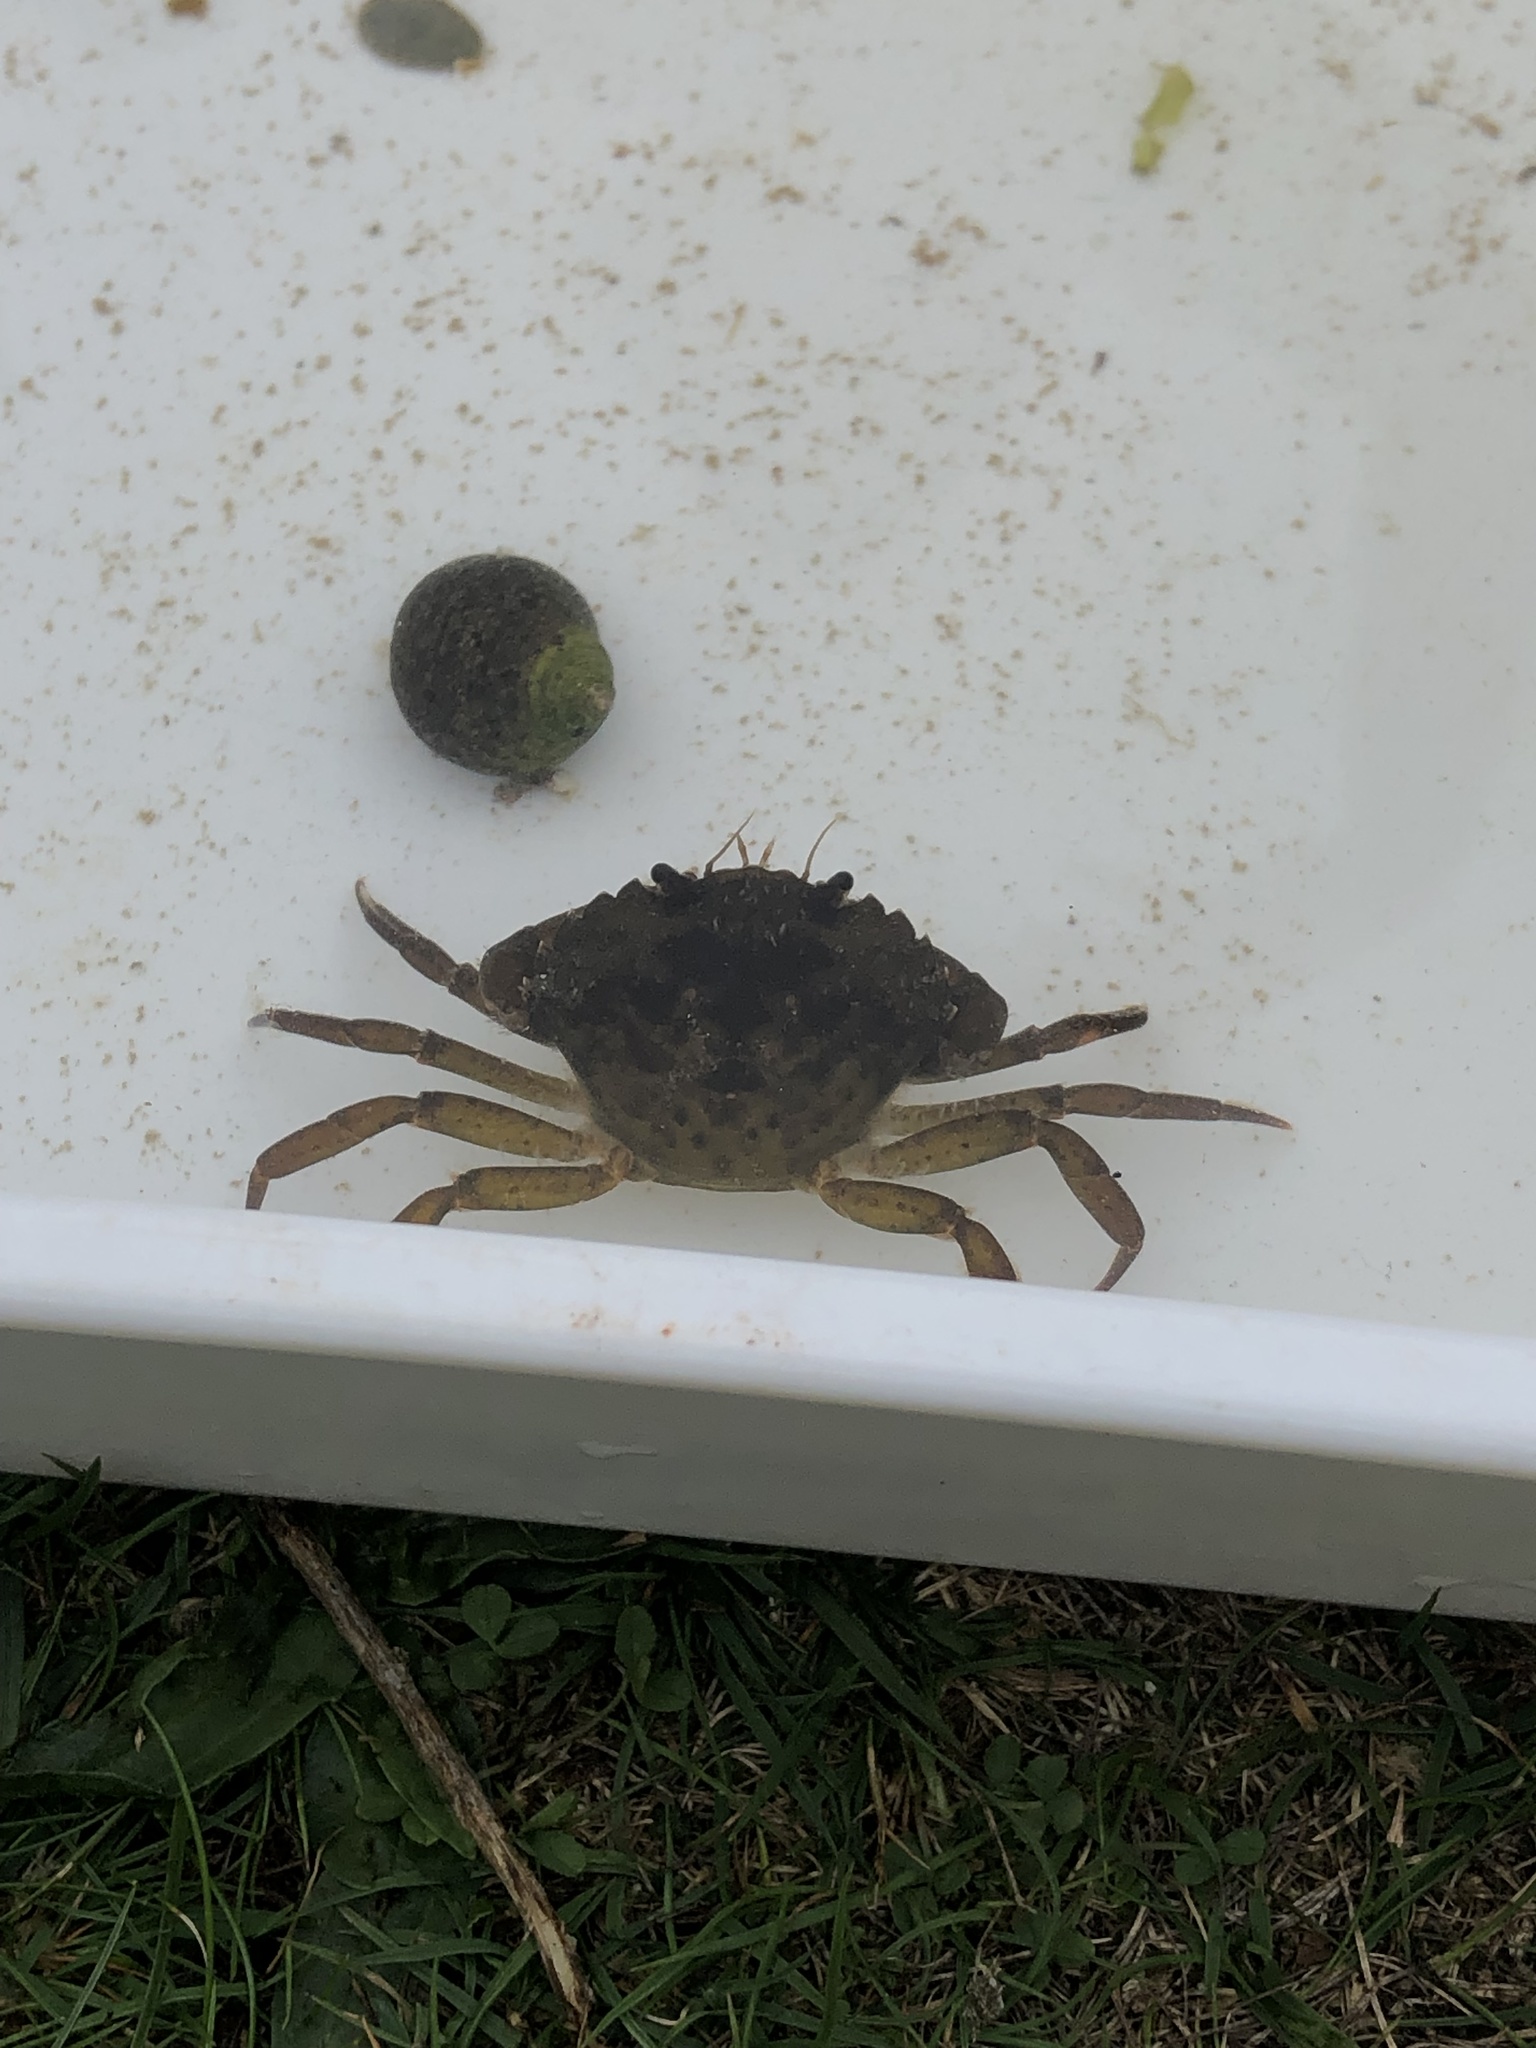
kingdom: Animalia
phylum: Arthropoda
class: Malacostraca
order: Decapoda
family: Carcinidae
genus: Carcinus
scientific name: Carcinus maenas
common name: European green crab
